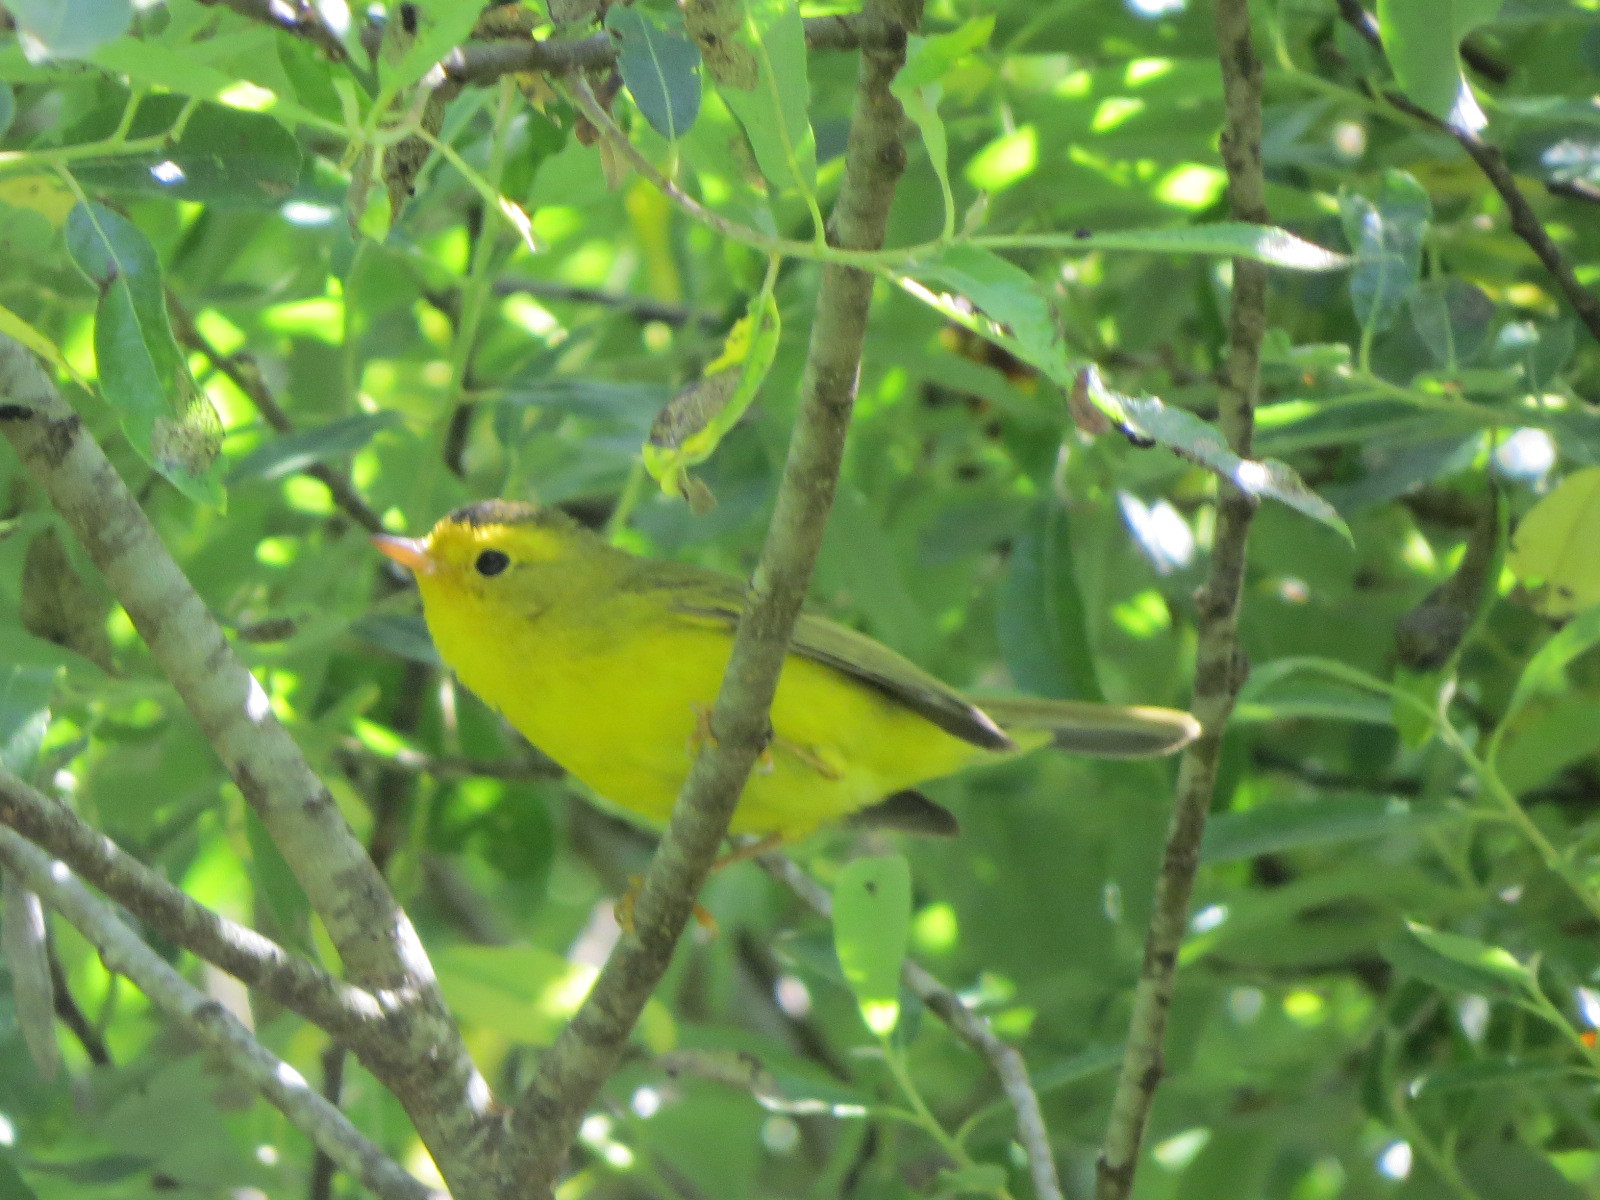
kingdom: Animalia
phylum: Chordata
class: Aves
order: Passeriformes
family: Parulidae
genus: Cardellina
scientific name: Cardellina pusilla
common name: Wilson's warbler
